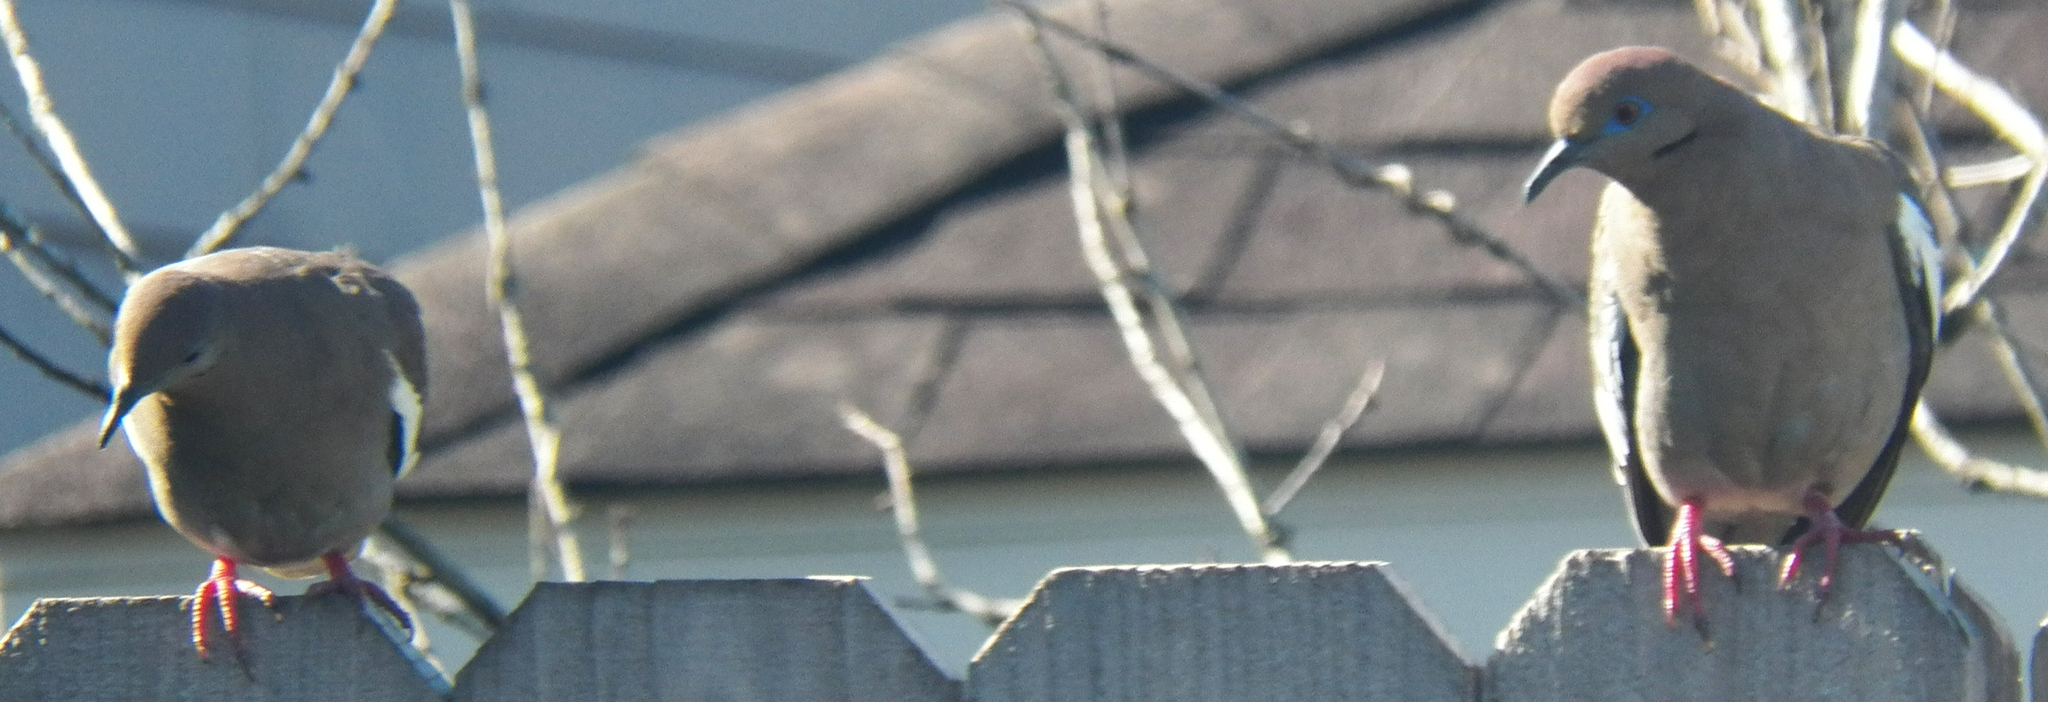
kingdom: Animalia
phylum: Chordata
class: Aves
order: Columbiformes
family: Columbidae
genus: Zenaida
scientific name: Zenaida asiatica
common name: White-winged dove
